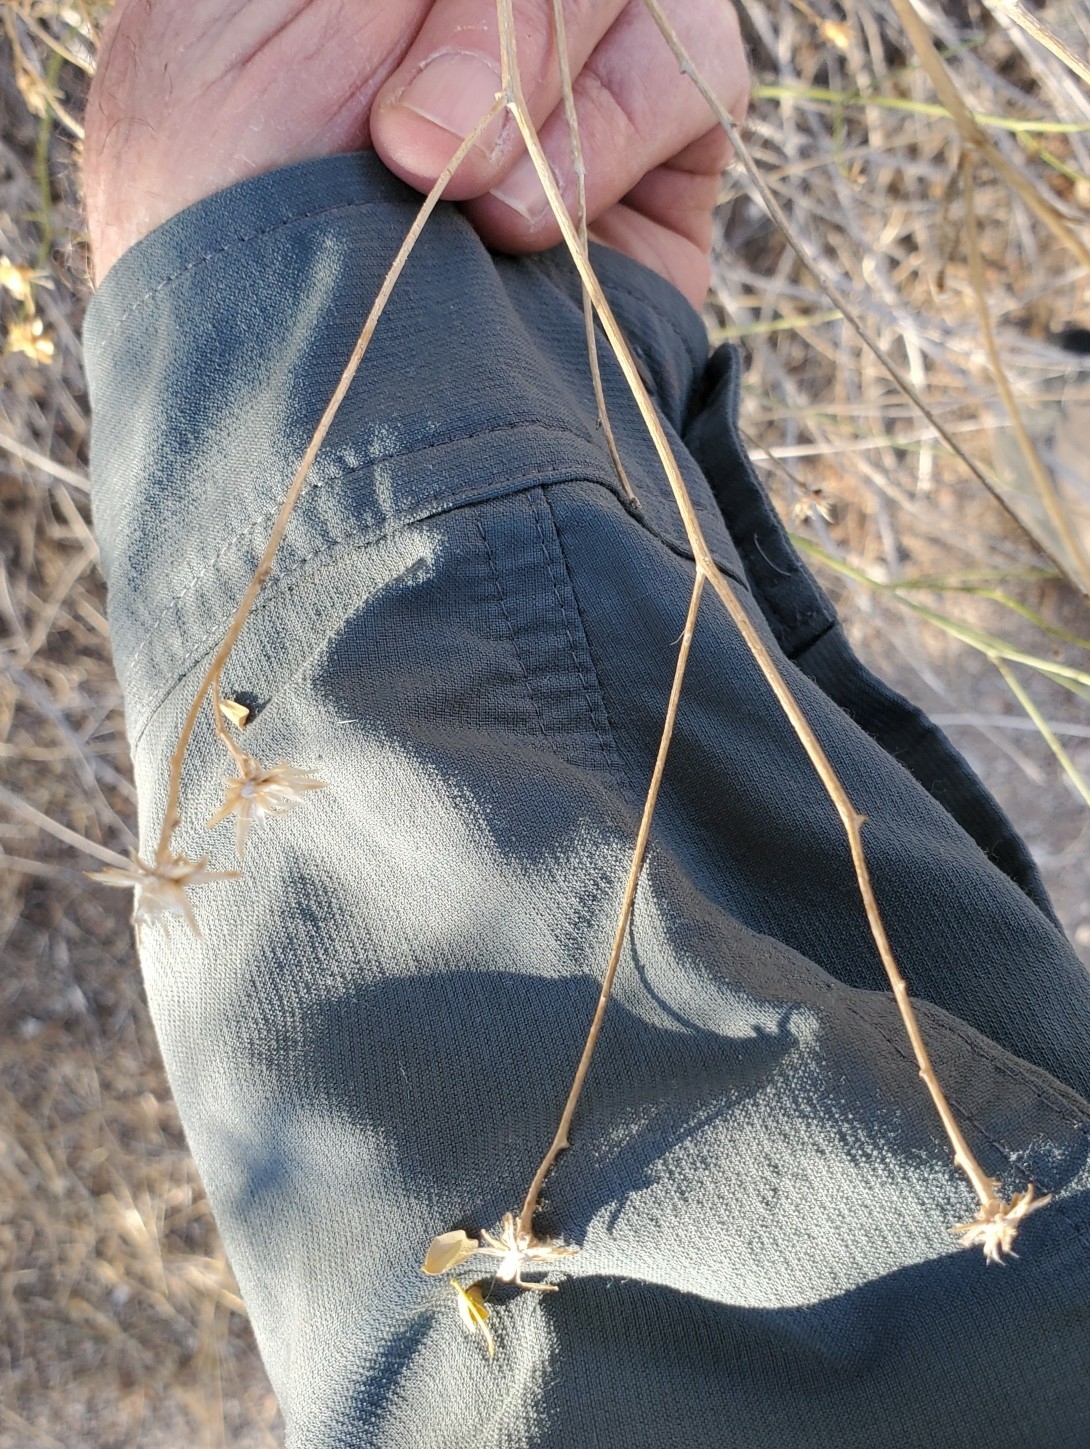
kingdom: Plantae
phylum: Tracheophyta
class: Magnoliopsida
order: Asterales
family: Asteraceae
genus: Bebbia
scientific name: Bebbia juncea
